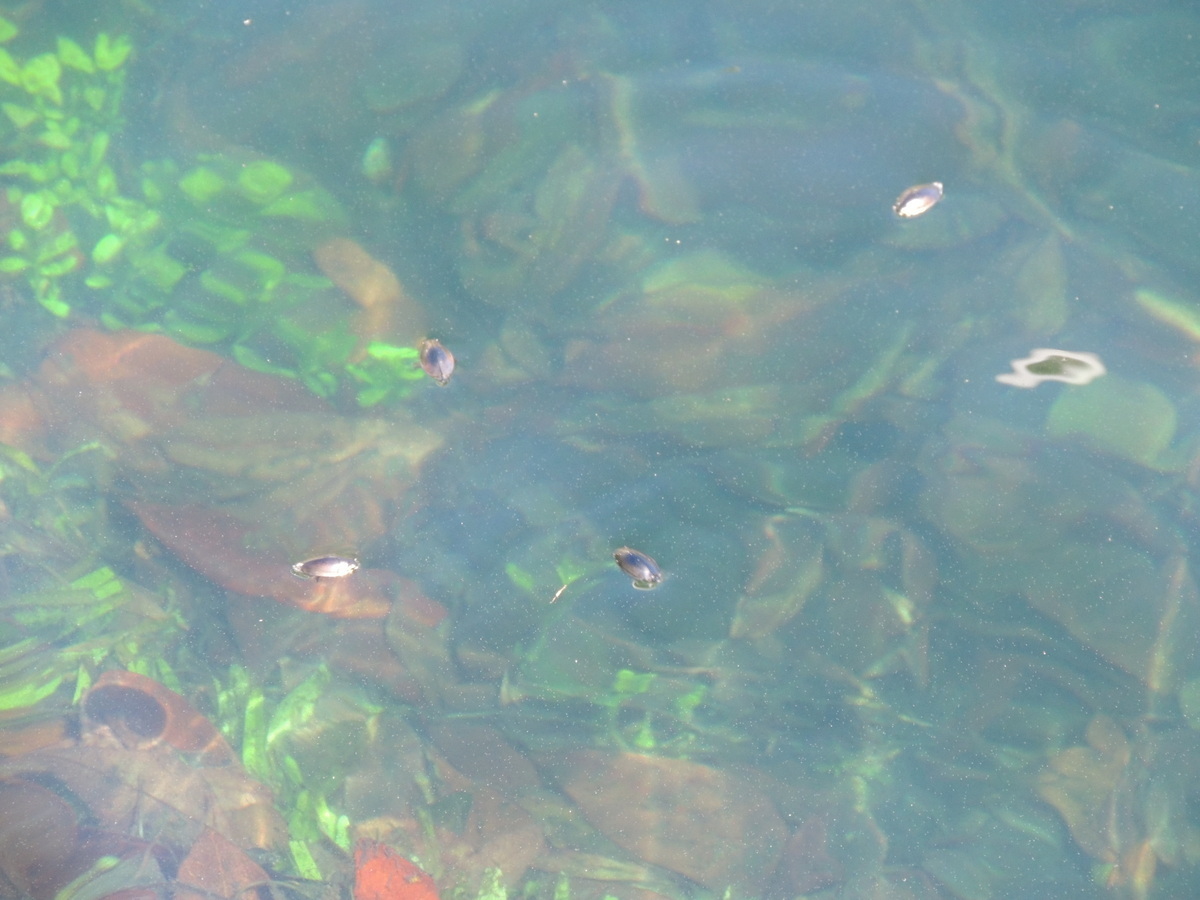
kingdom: Animalia
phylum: Arthropoda
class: Insecta
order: Coleoptera
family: Gyrinidae
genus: Dineutus
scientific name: Dineutus
